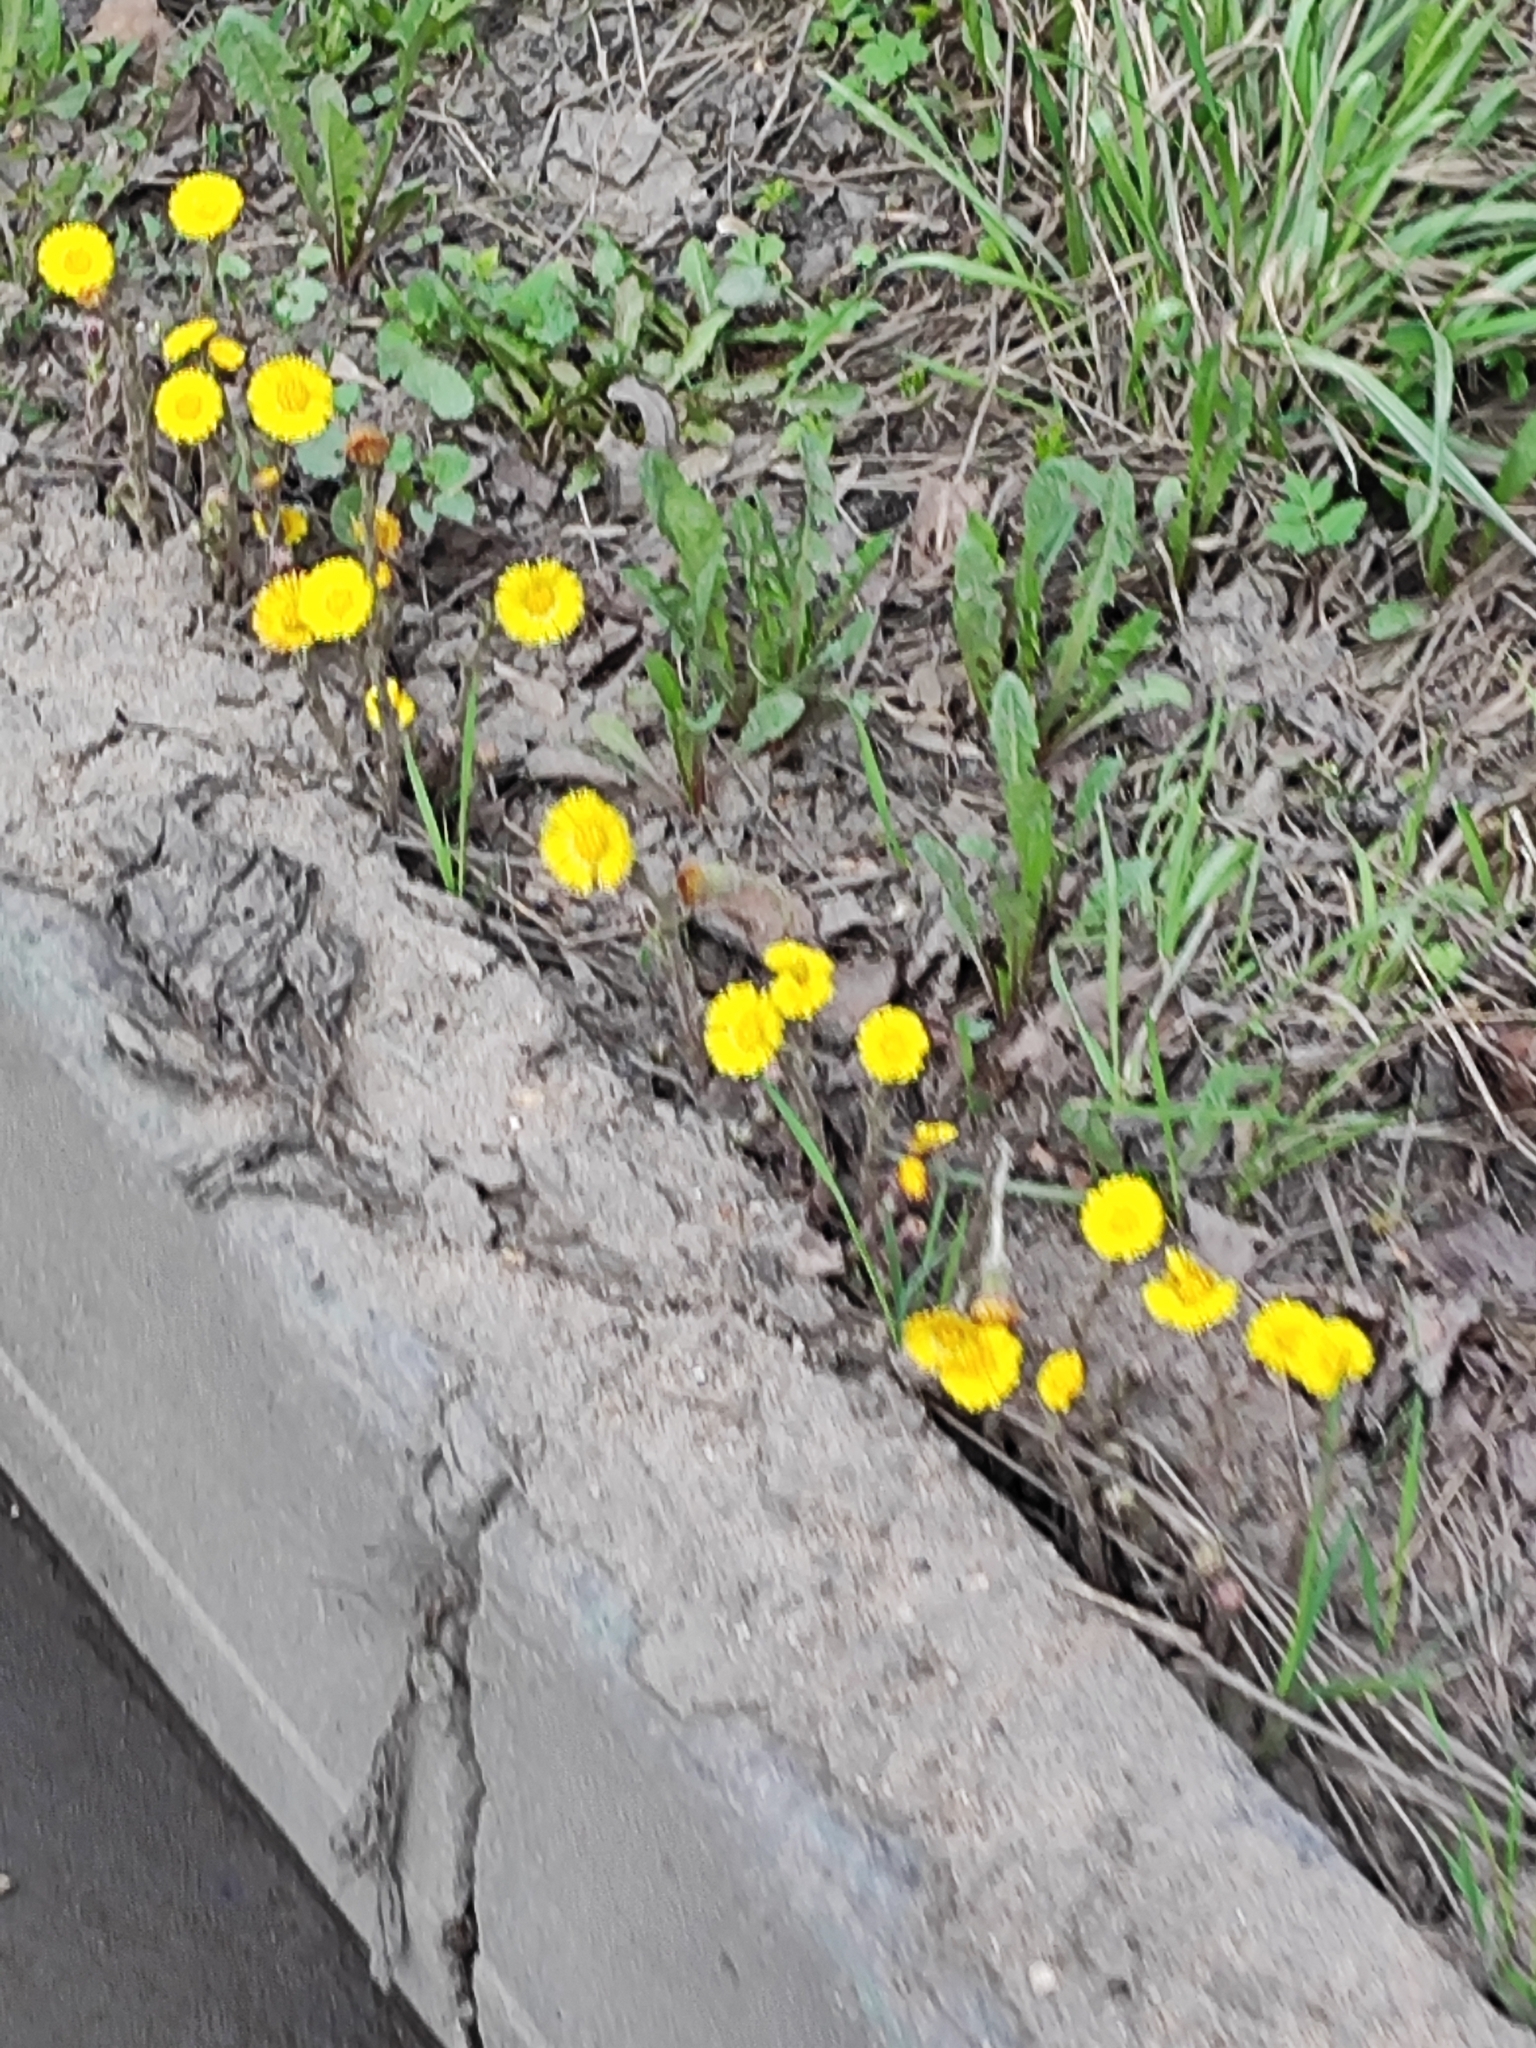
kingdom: Plantae
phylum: Tracheophyta
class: Magnoliopsida
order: Asterales
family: Asteraceae
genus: Tussilago
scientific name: Tussilago farfara
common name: Coltsfoot
